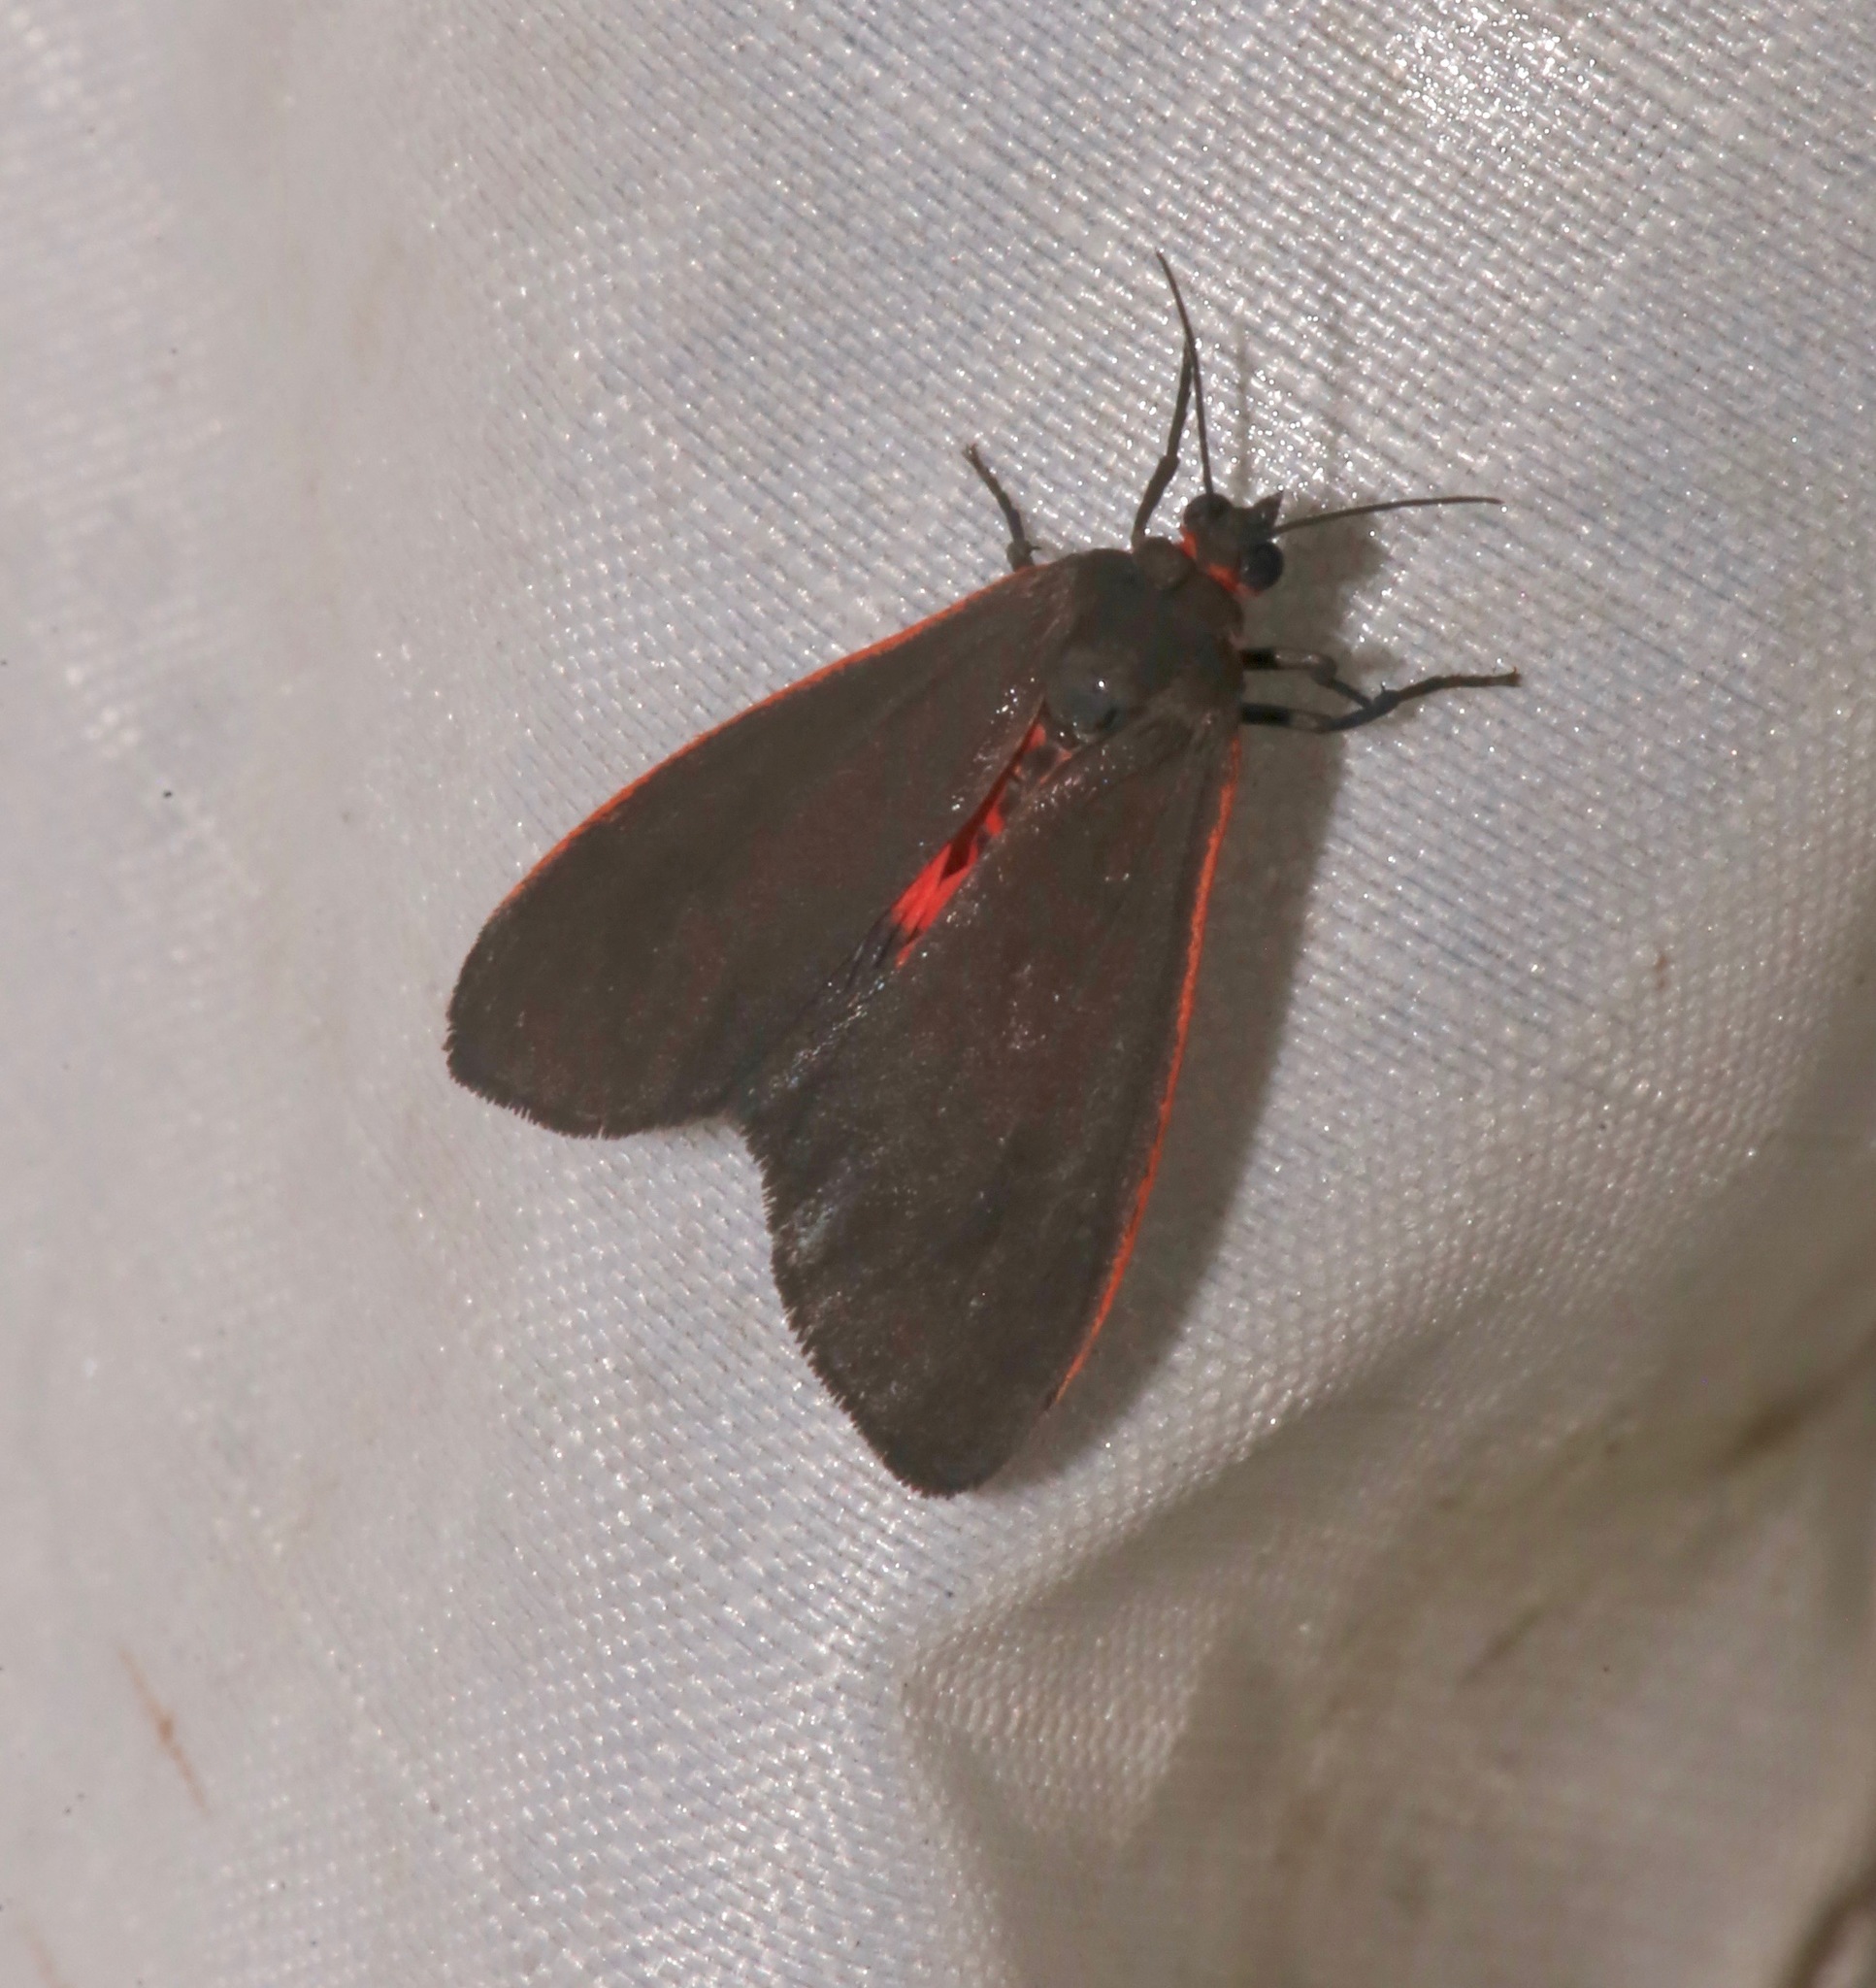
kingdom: Animalia
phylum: Arthropoda
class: Insecta
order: Lepidoptera
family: Erebidae
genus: Virbia
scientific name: Virbia laeta
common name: Joyful holomelina moth
